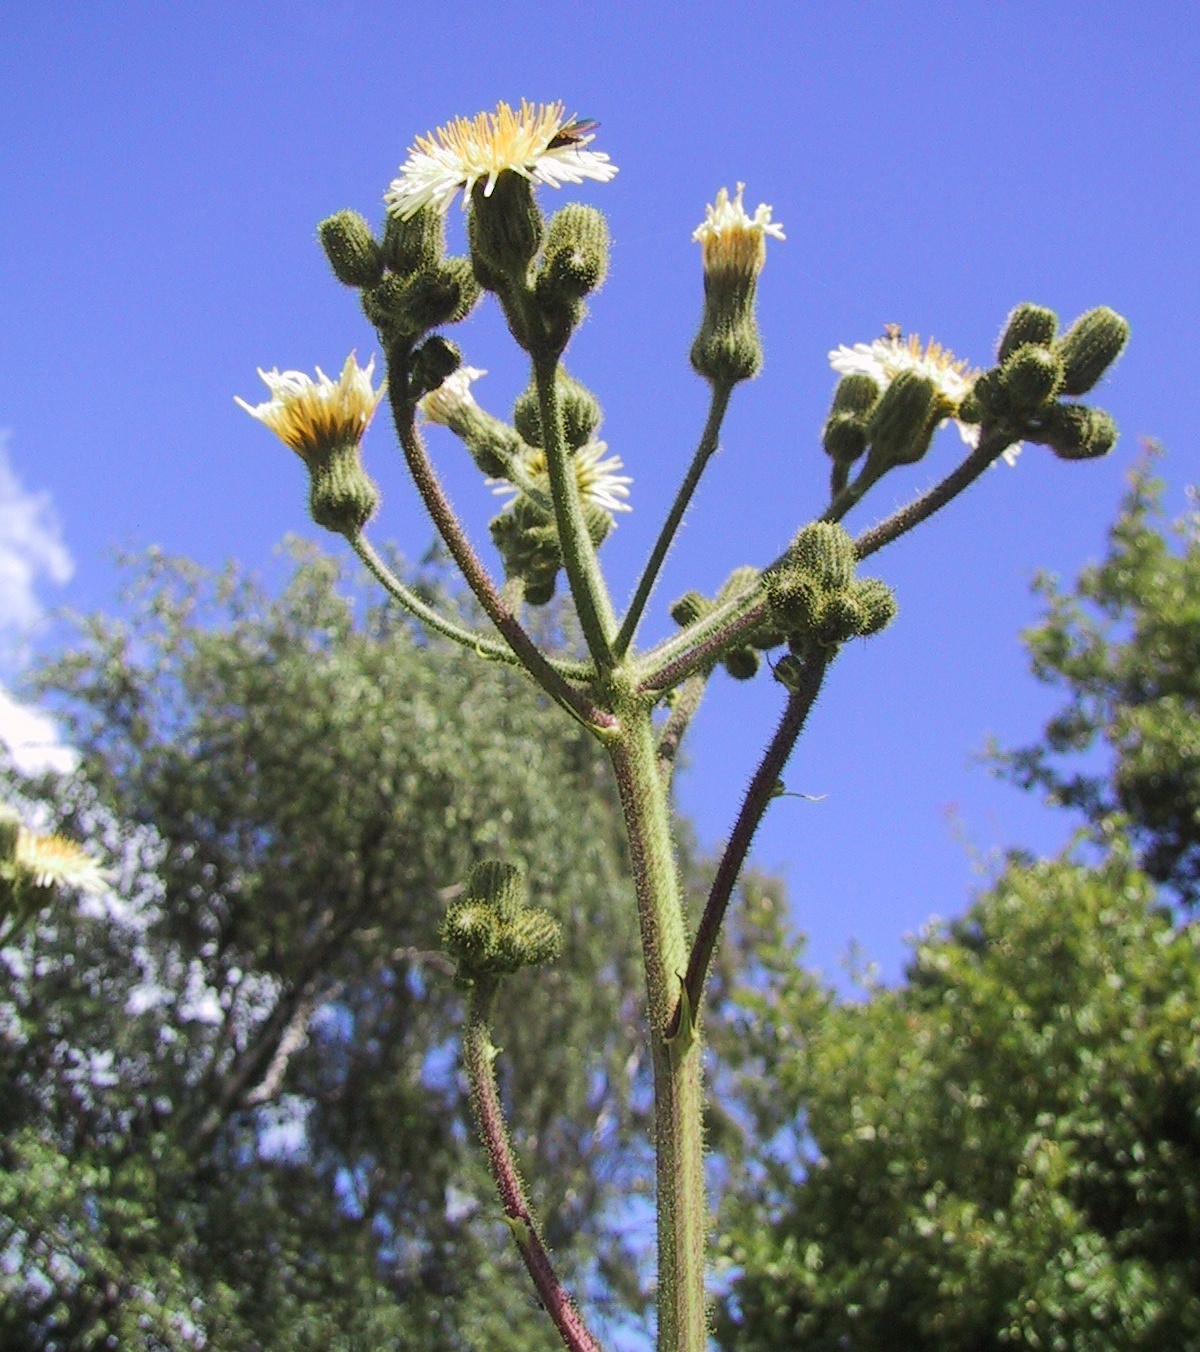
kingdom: Plantae
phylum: Tracheophyta
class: Magnoliopsida
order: Asterales
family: Asteraceae
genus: Sonchus
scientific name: Sonchus palustris
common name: Marsh sow-thistle
